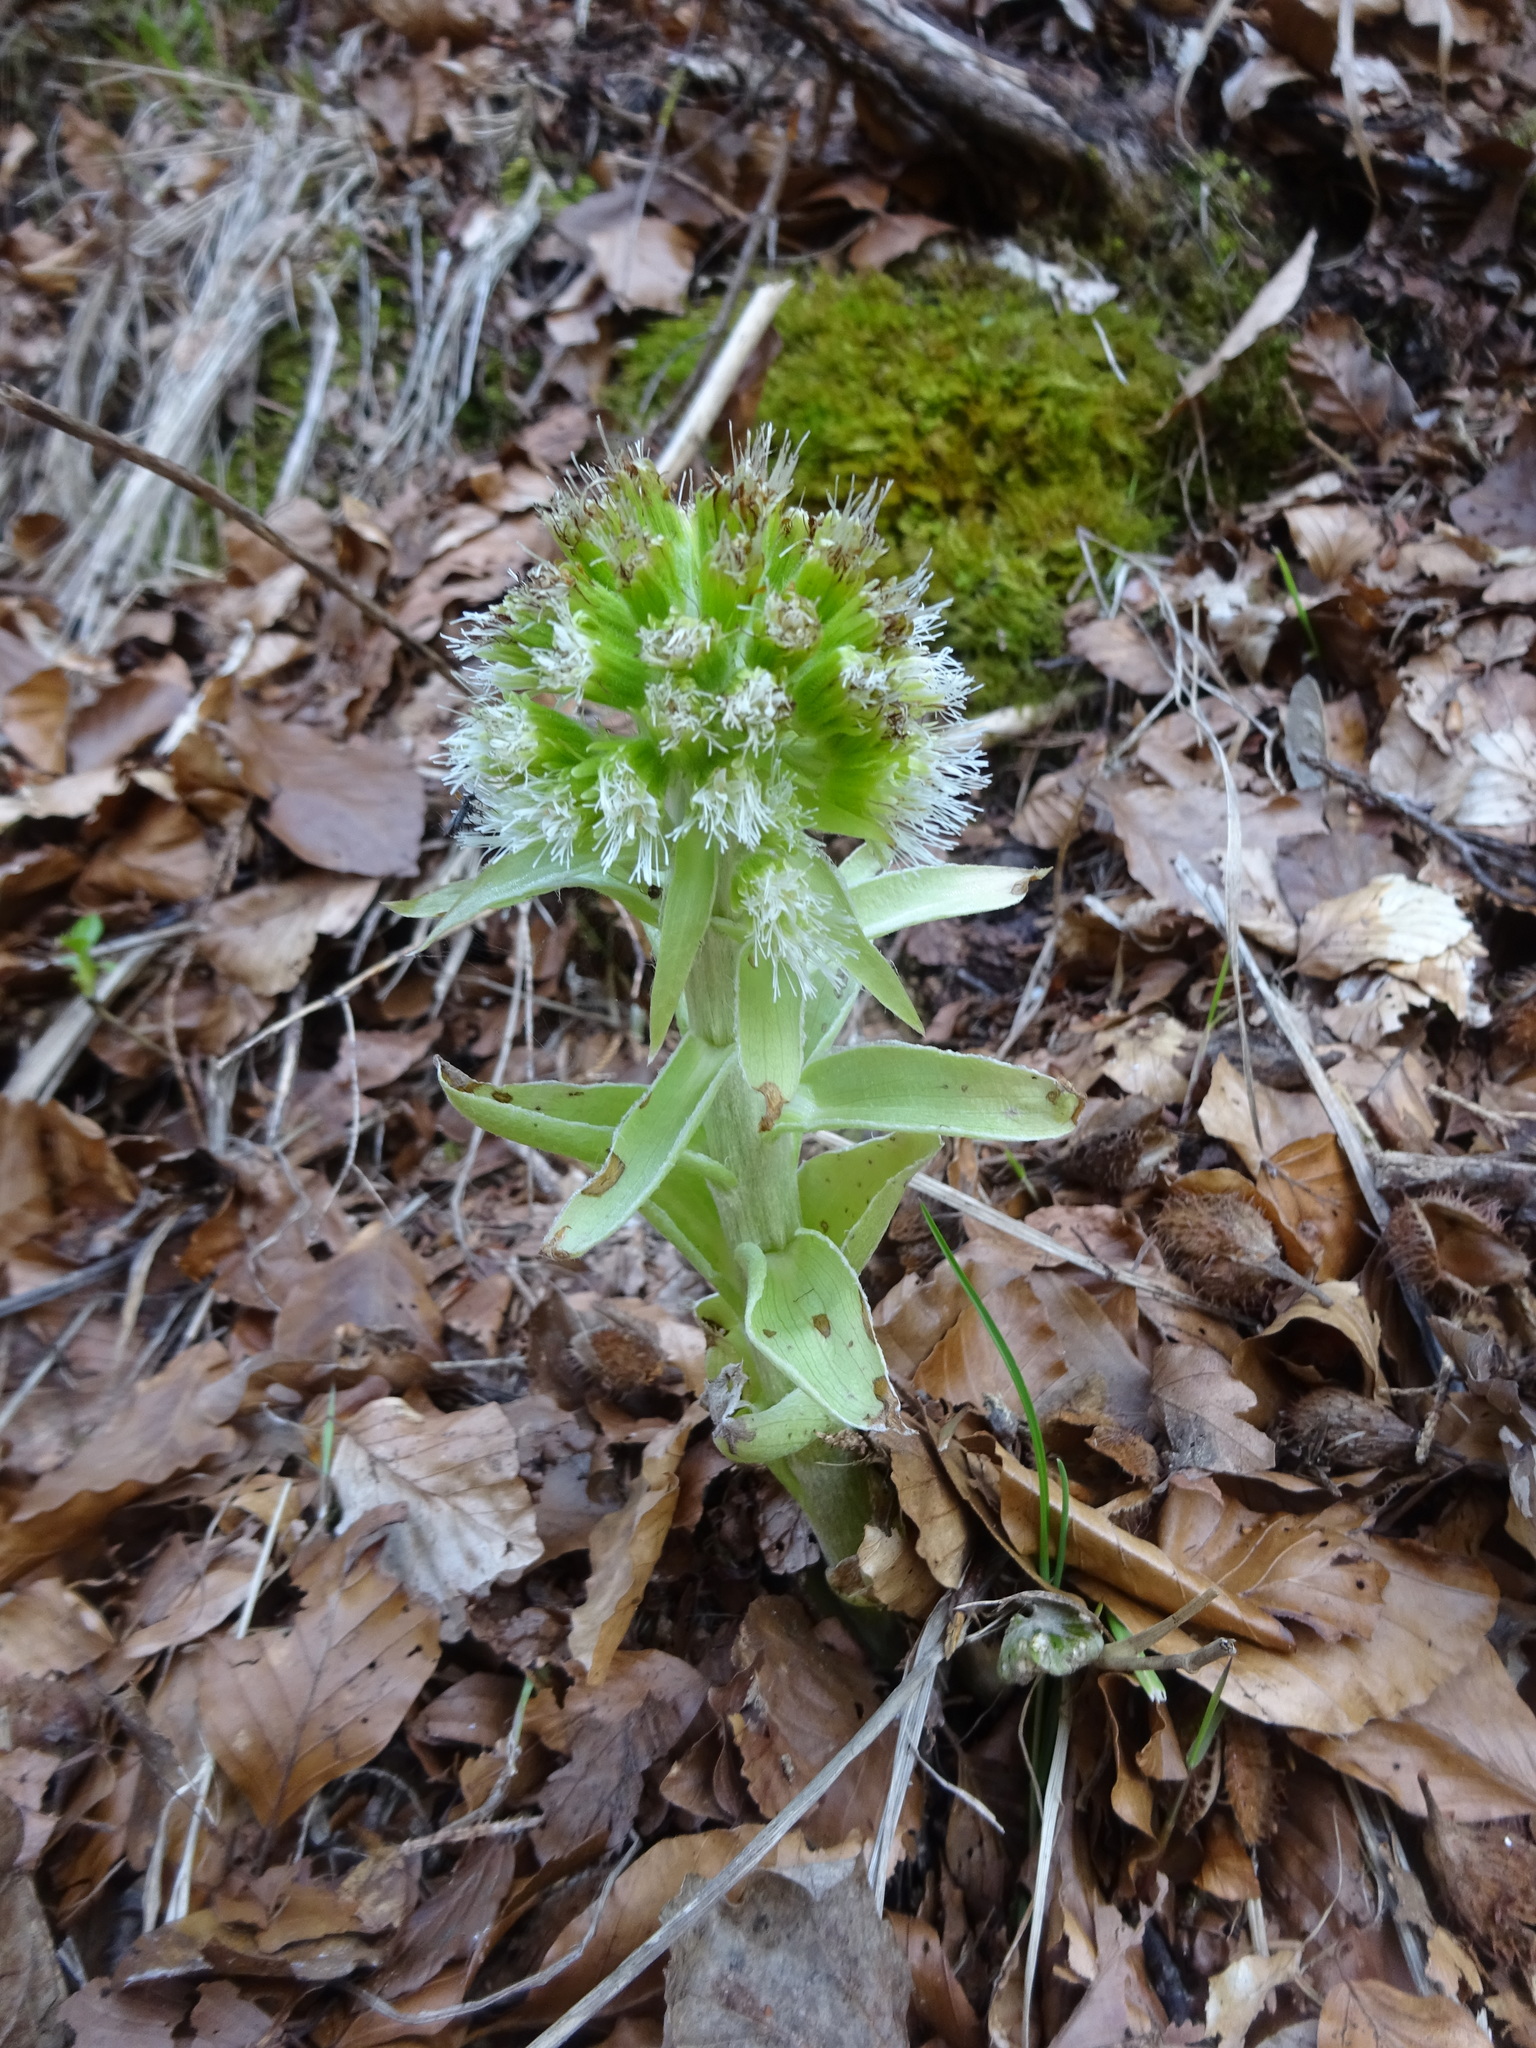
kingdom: Plantae
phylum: Tracheophyta
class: Magnoliopsida
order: Asterales
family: Asteraceae
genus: Petasites
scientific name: Petasites albus
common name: White butterbur
